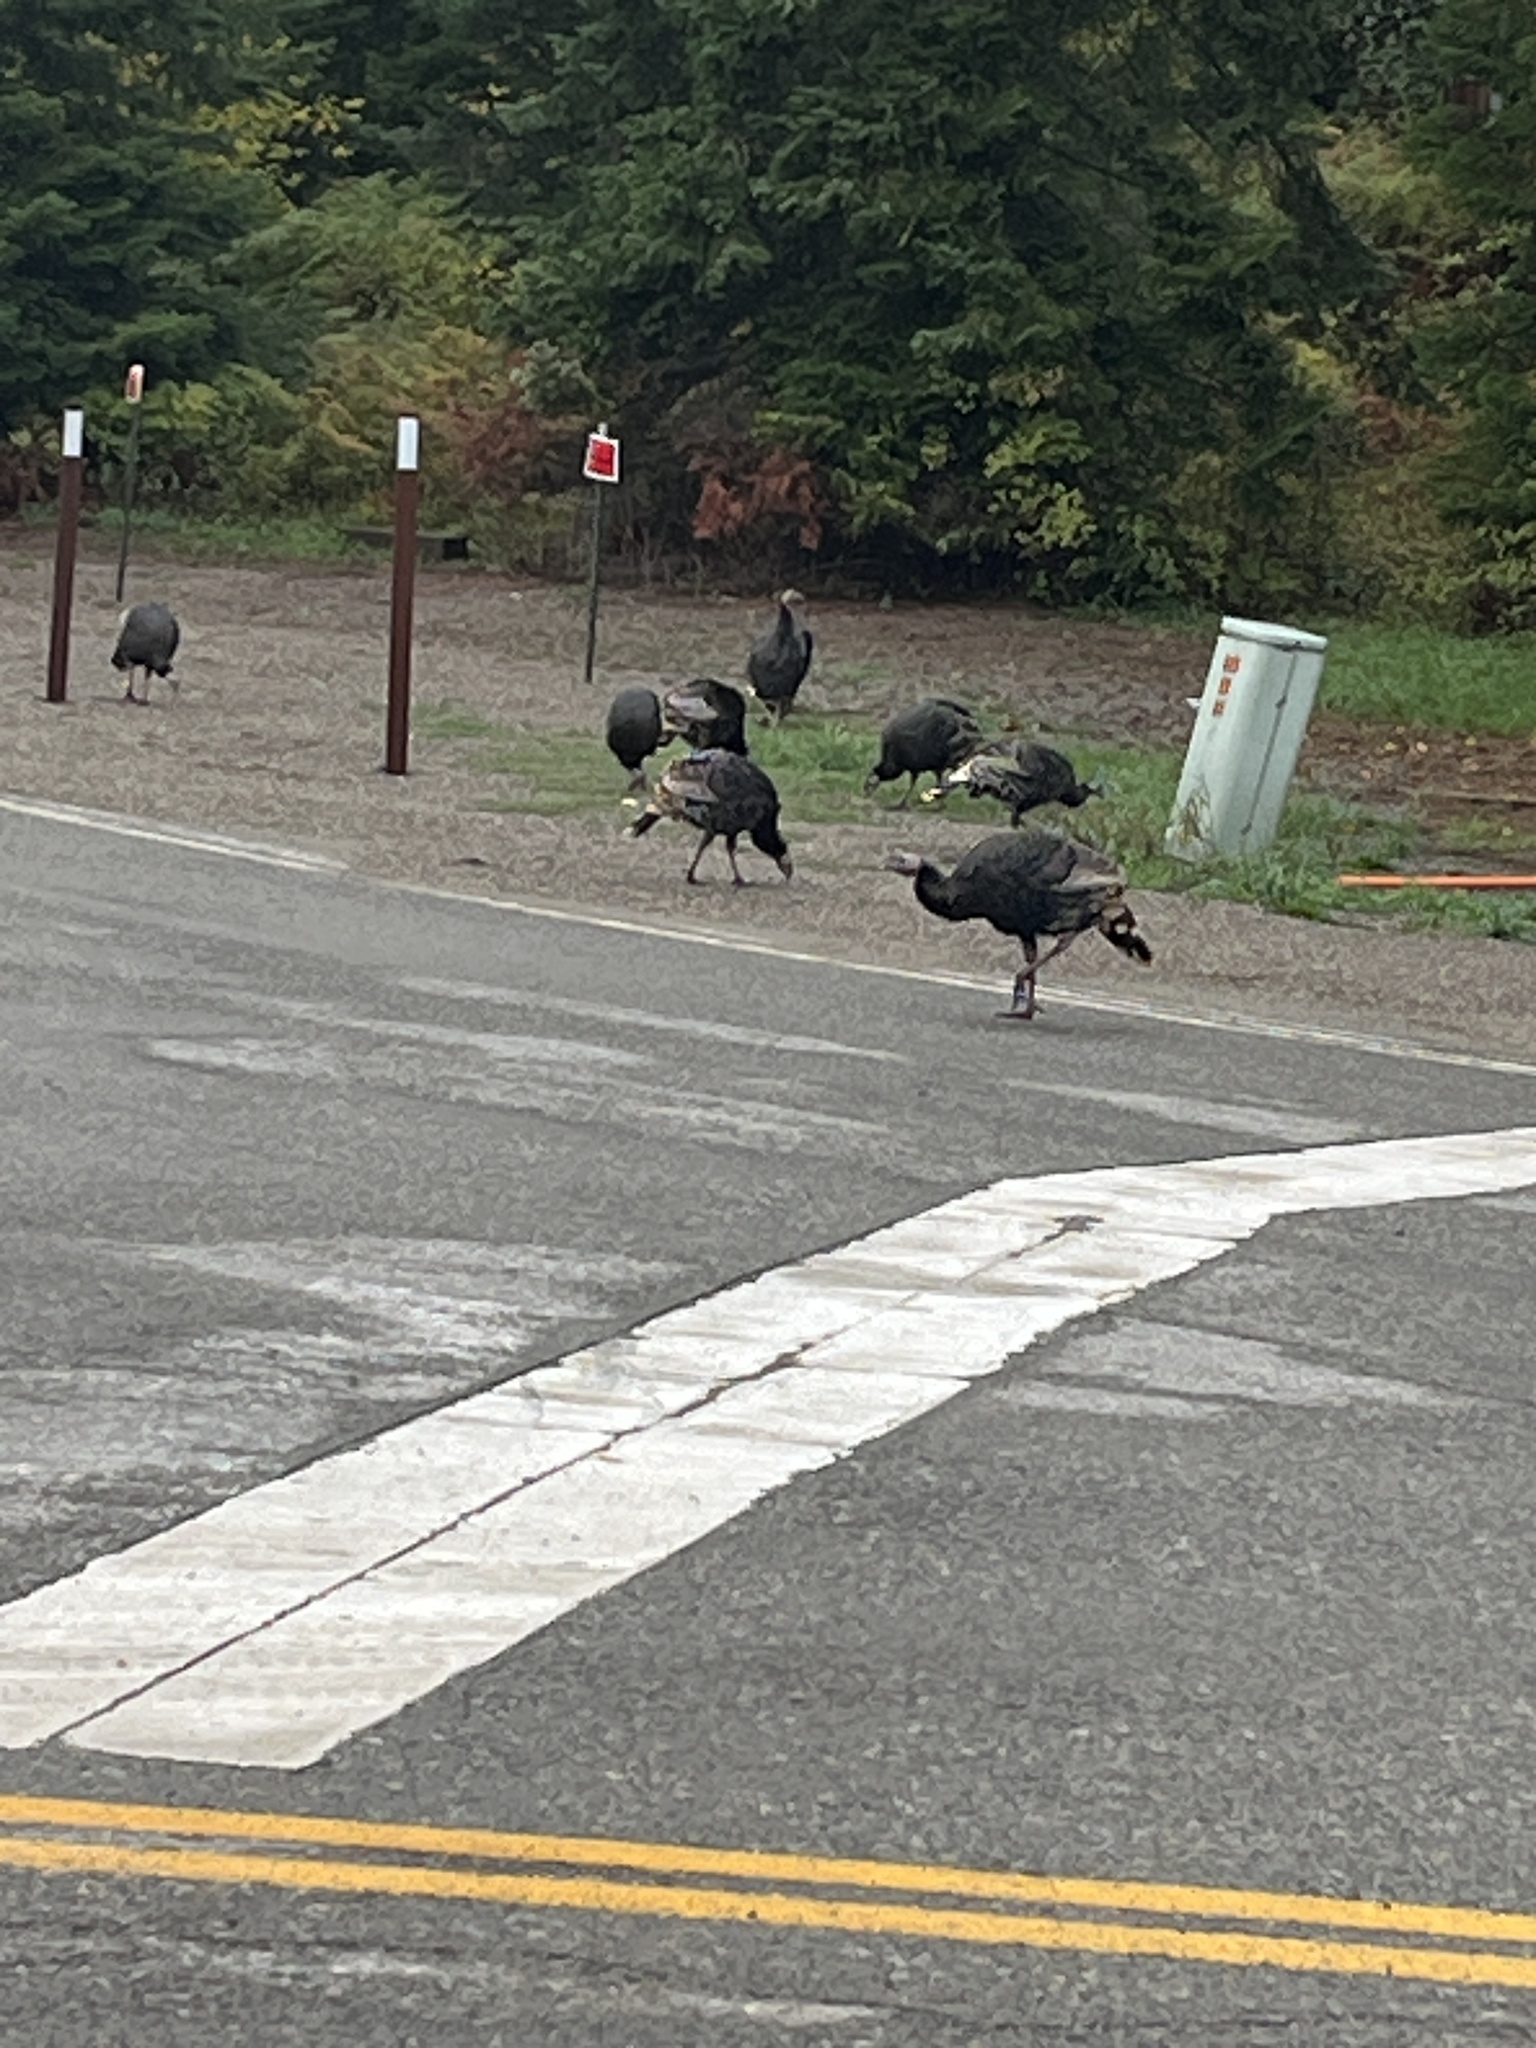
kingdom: Animalia
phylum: Chordata
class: Aves
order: Galliformes
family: Phasianidae
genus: Meleagris
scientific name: Meleagris gallopavo
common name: Wild turkey
